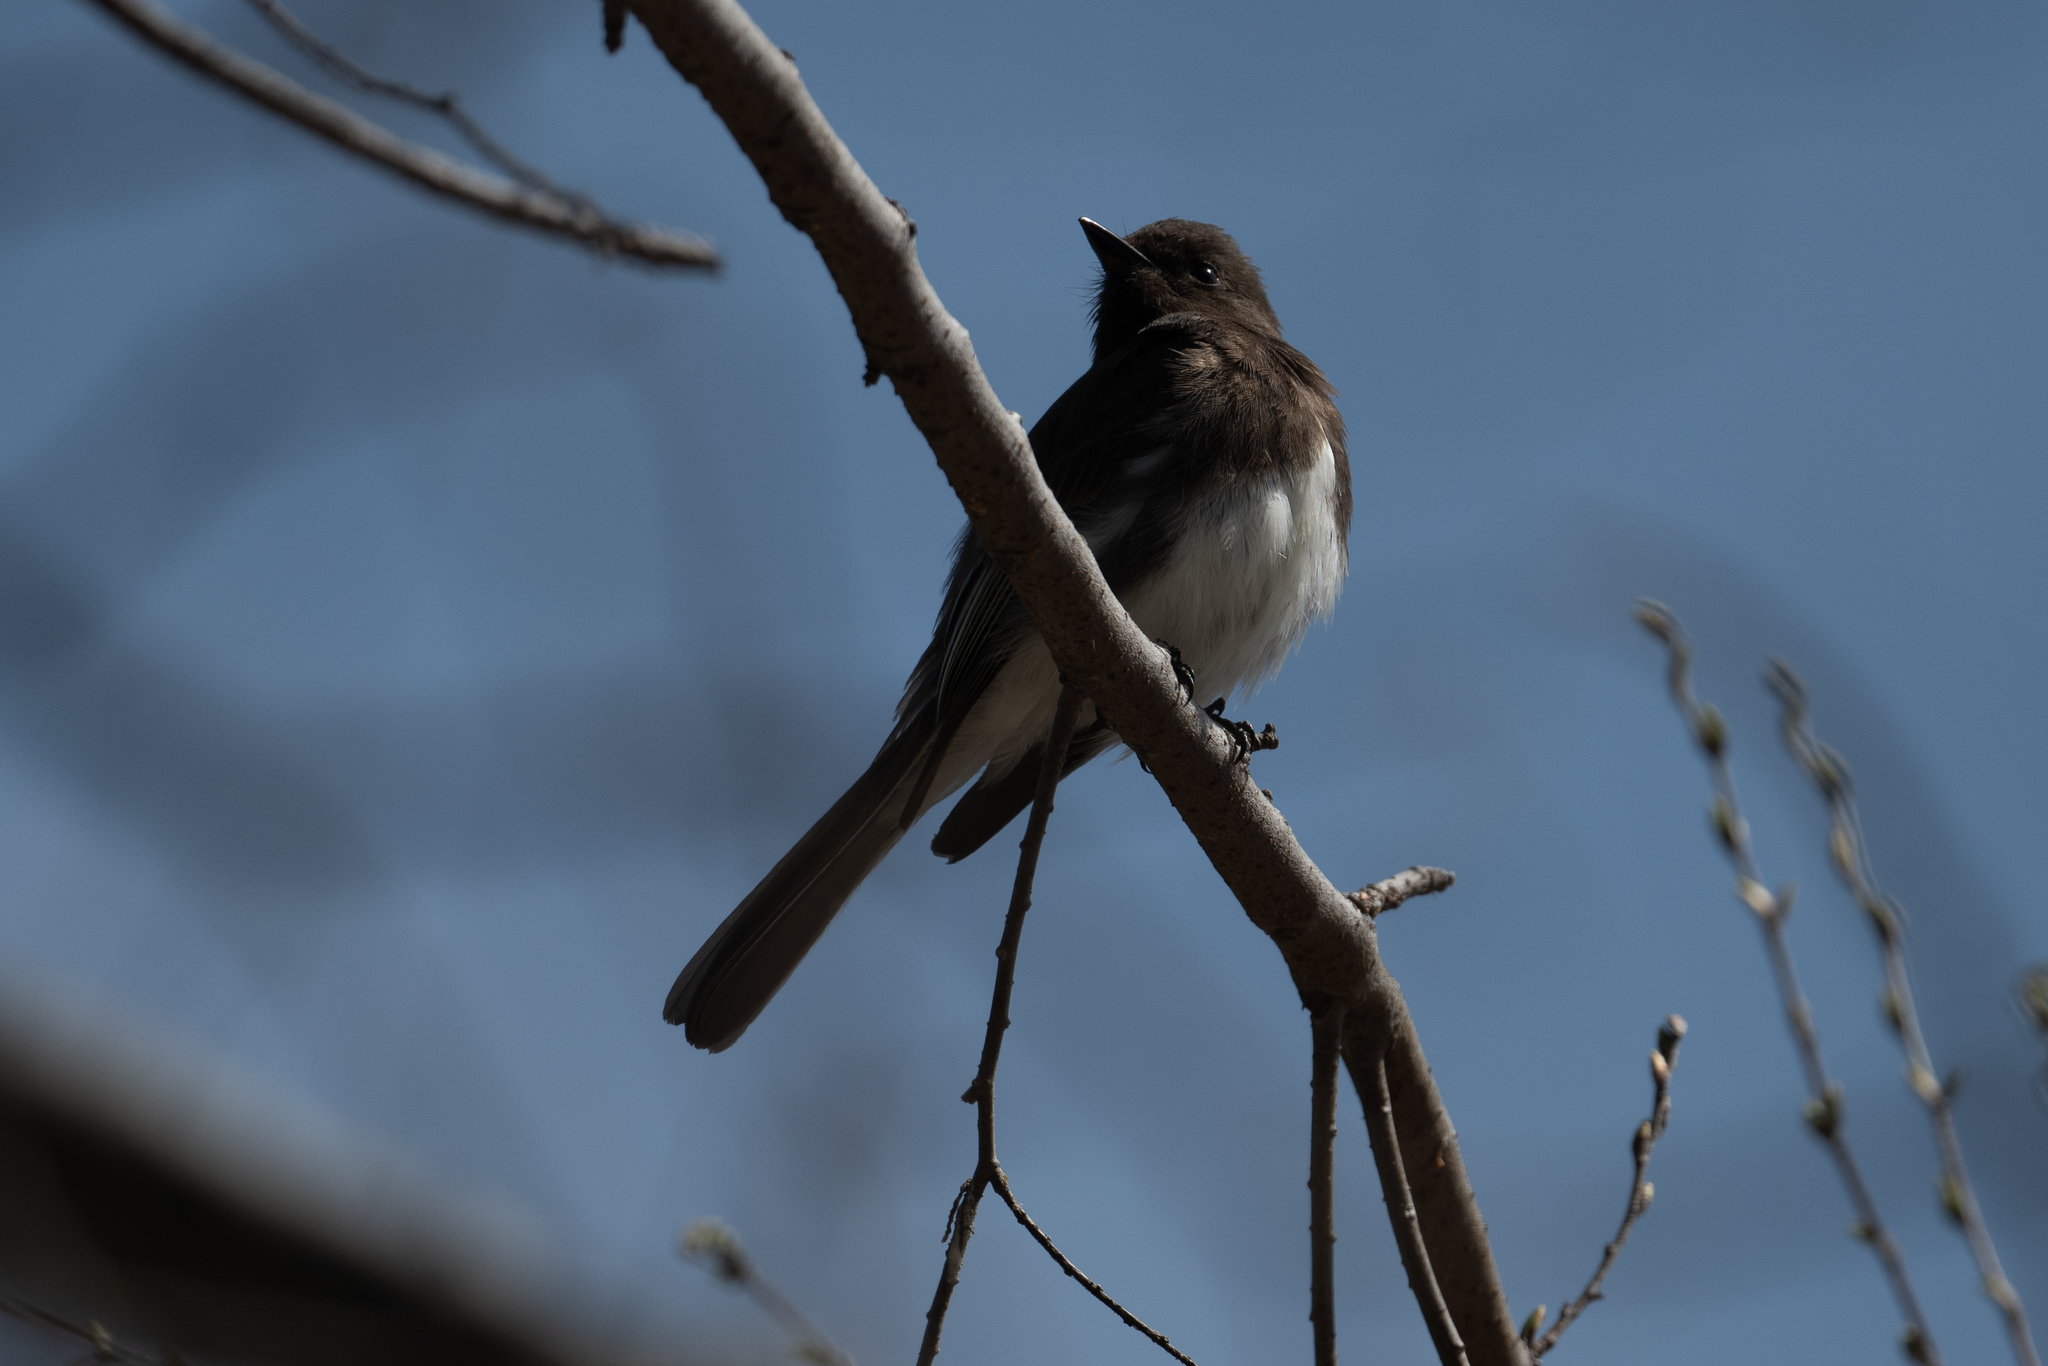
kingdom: Animalia
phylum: Chordata
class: Aves
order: Passeriformes
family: Tyrannidae
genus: Sayornis
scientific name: Sayornis nigricans
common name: Black phoebe
